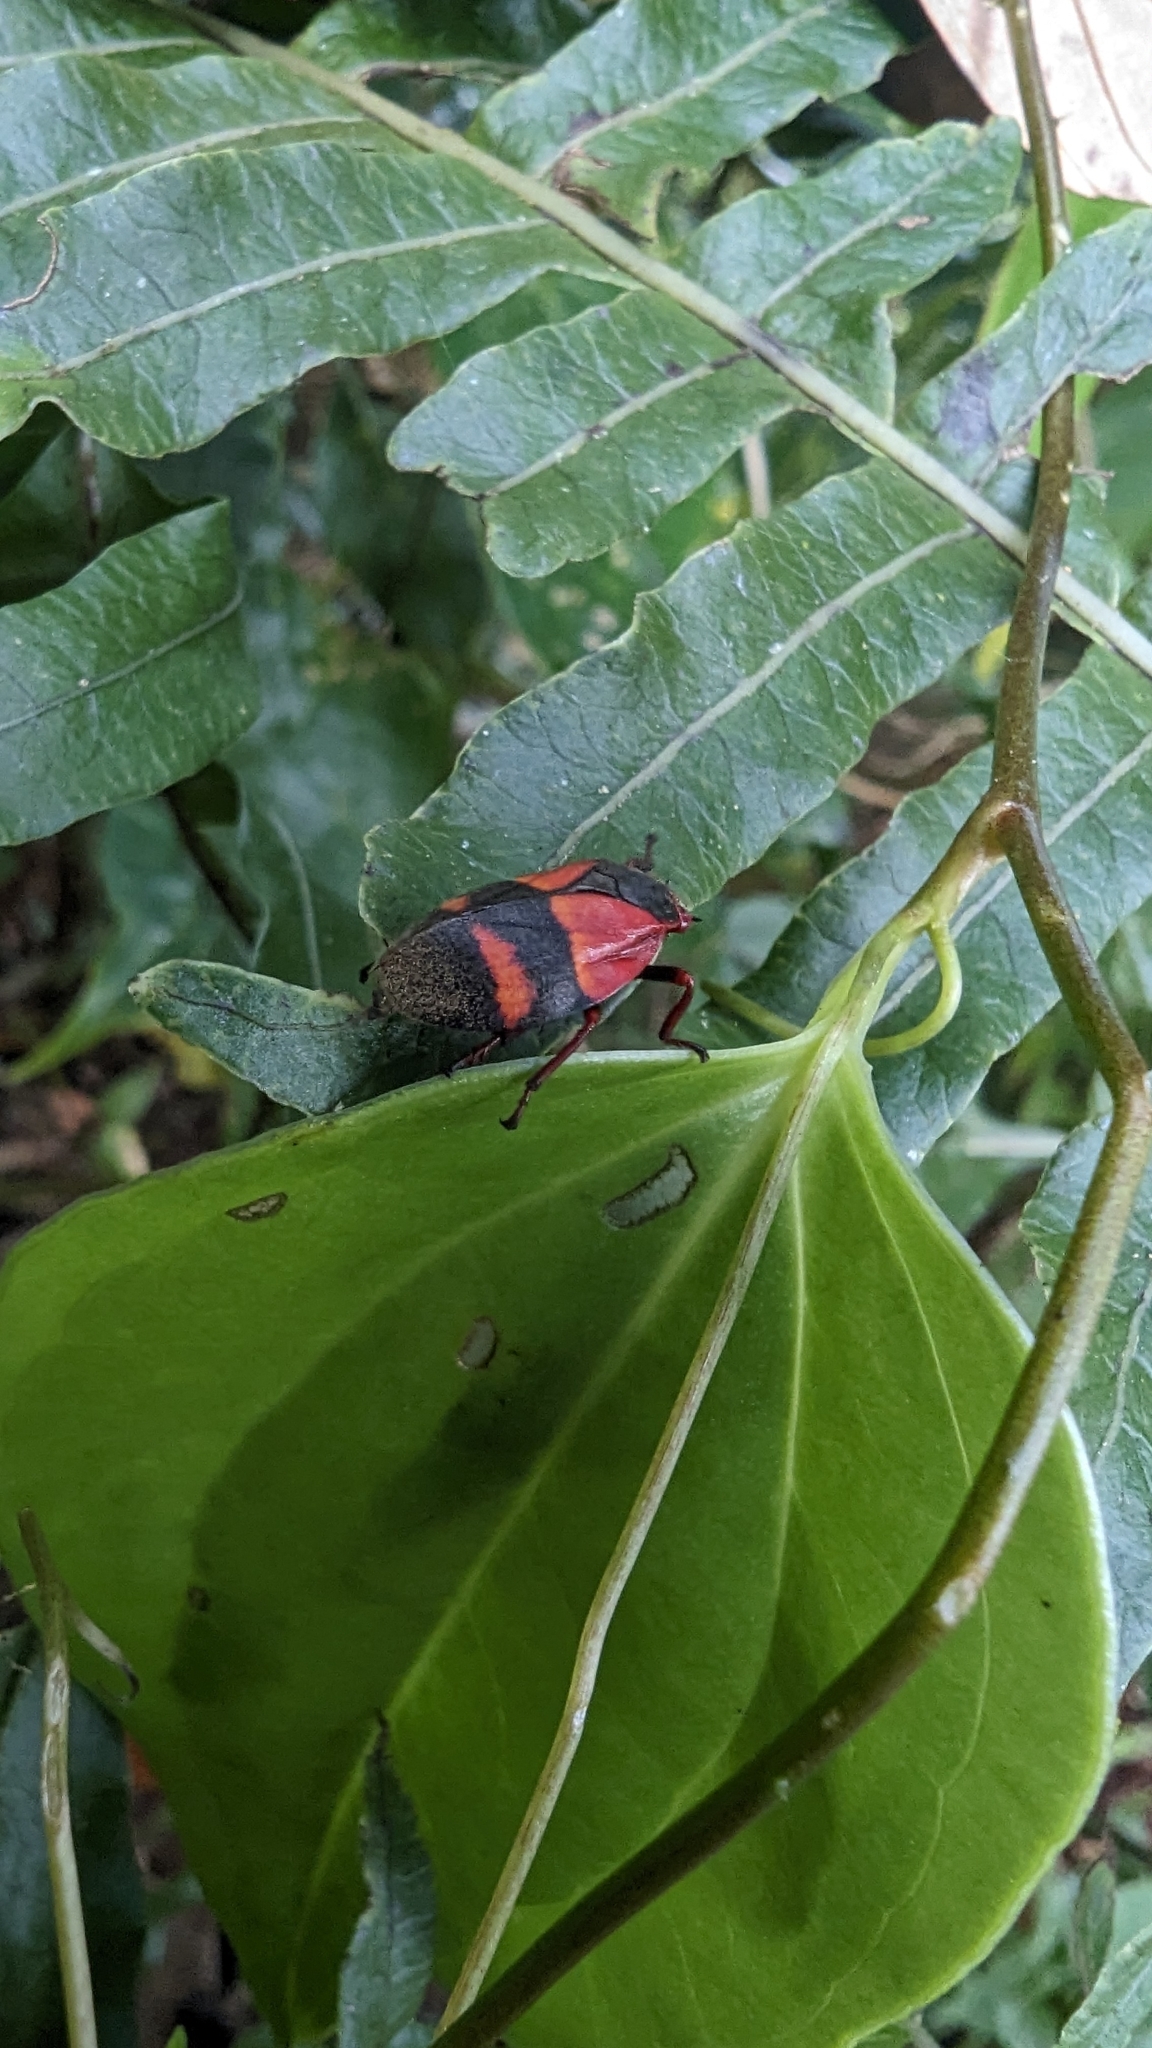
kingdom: Animalia
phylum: Arthropoda
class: Insecta
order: Hemiptera
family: Cercopidae
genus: Prosapia
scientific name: Prosapia
